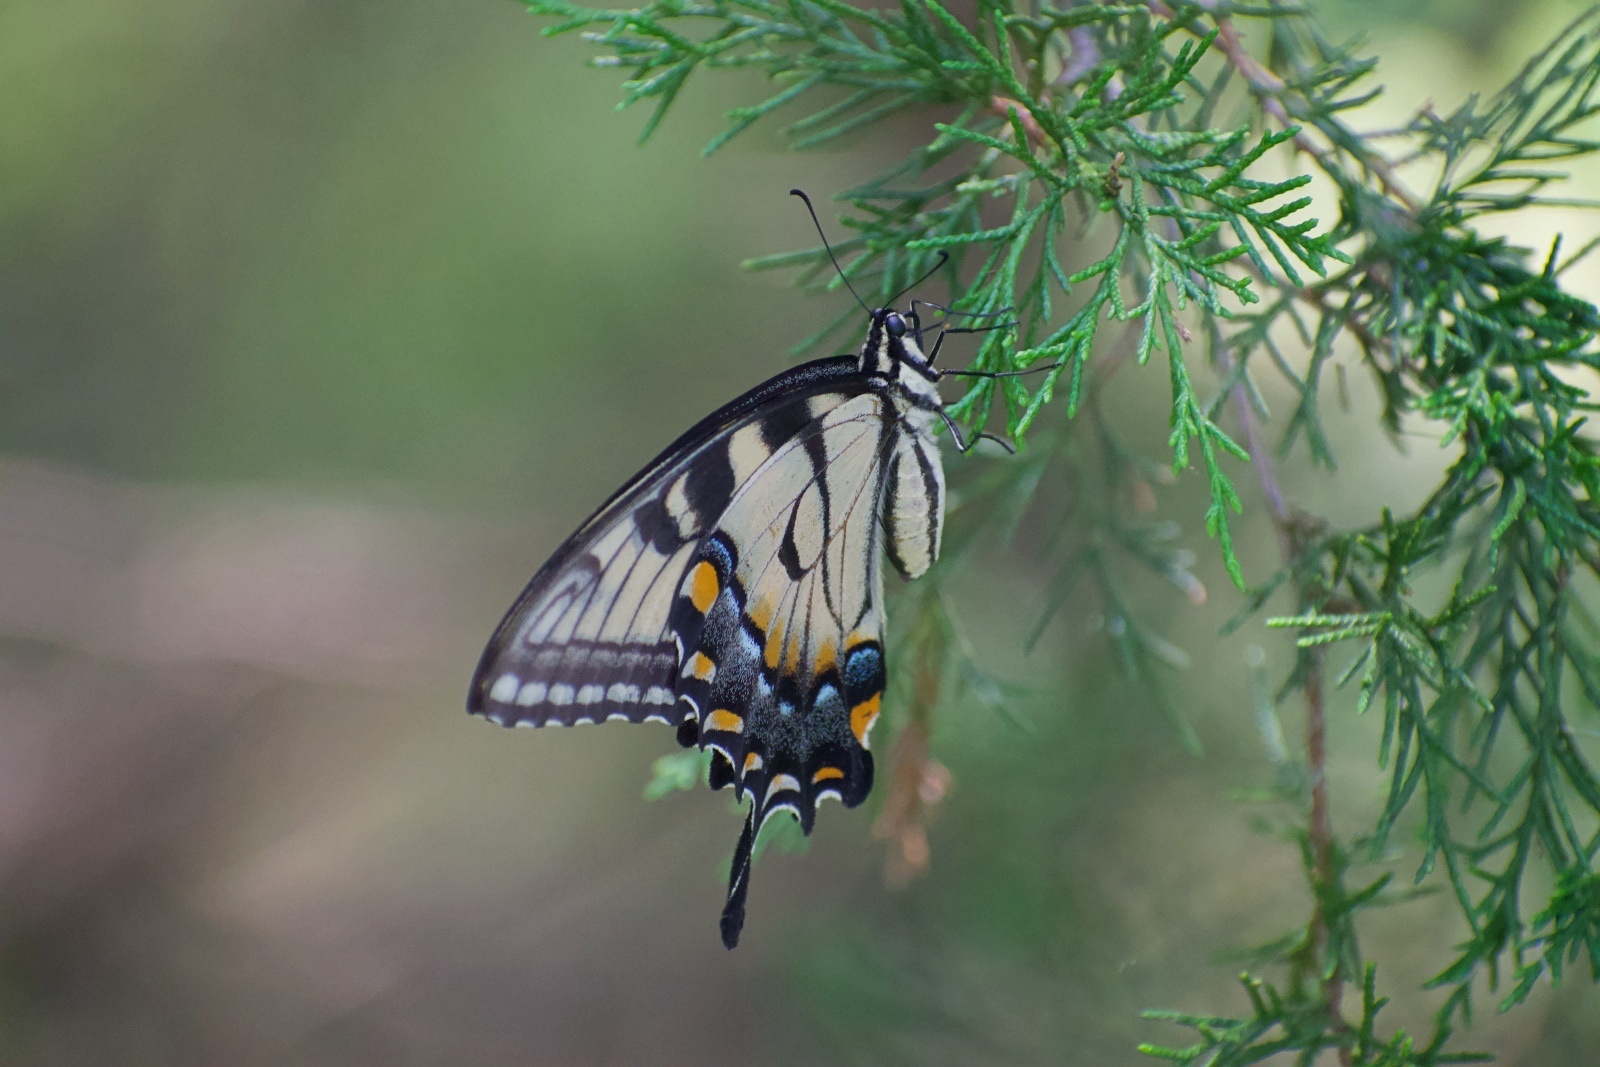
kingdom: Animalia
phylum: Arthropoda
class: Insecta
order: Lepidoptera
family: Papilionidae
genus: Papilio
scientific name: Papilio glaucus
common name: Tiger swallowtail
